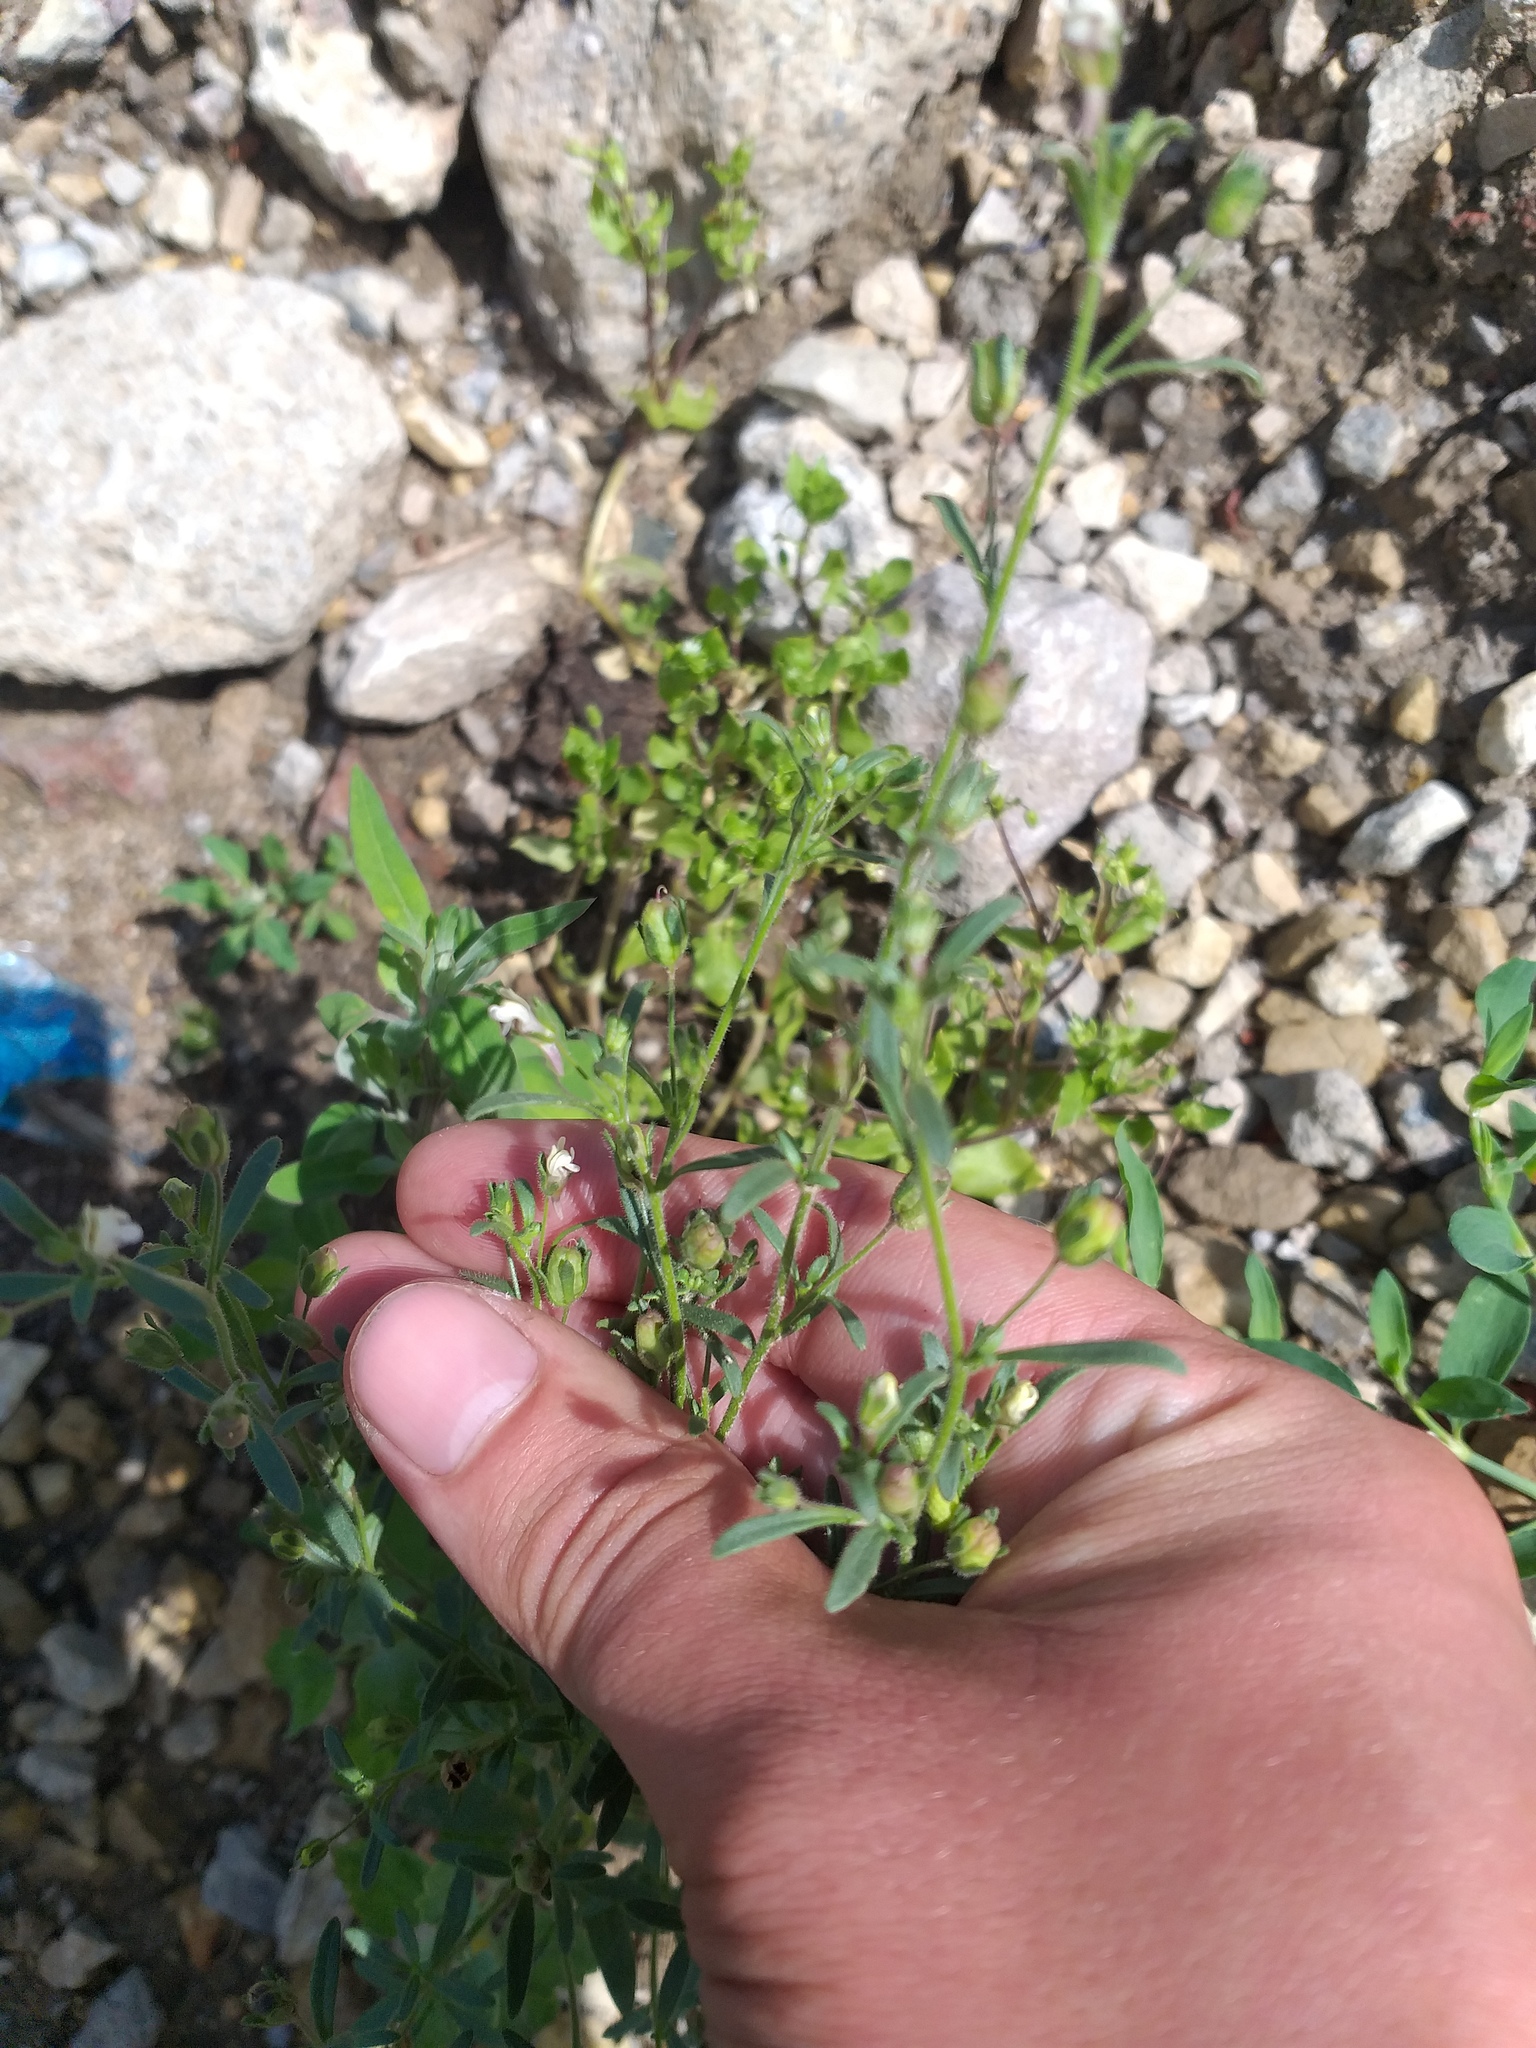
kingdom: Plantae
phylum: Tracheophyta
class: Magnoliopsida
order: Lamiales
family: Plantaginaceae
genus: Chaenorhinum
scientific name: Chaenorhinum minus
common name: Dwarf snapdragon
